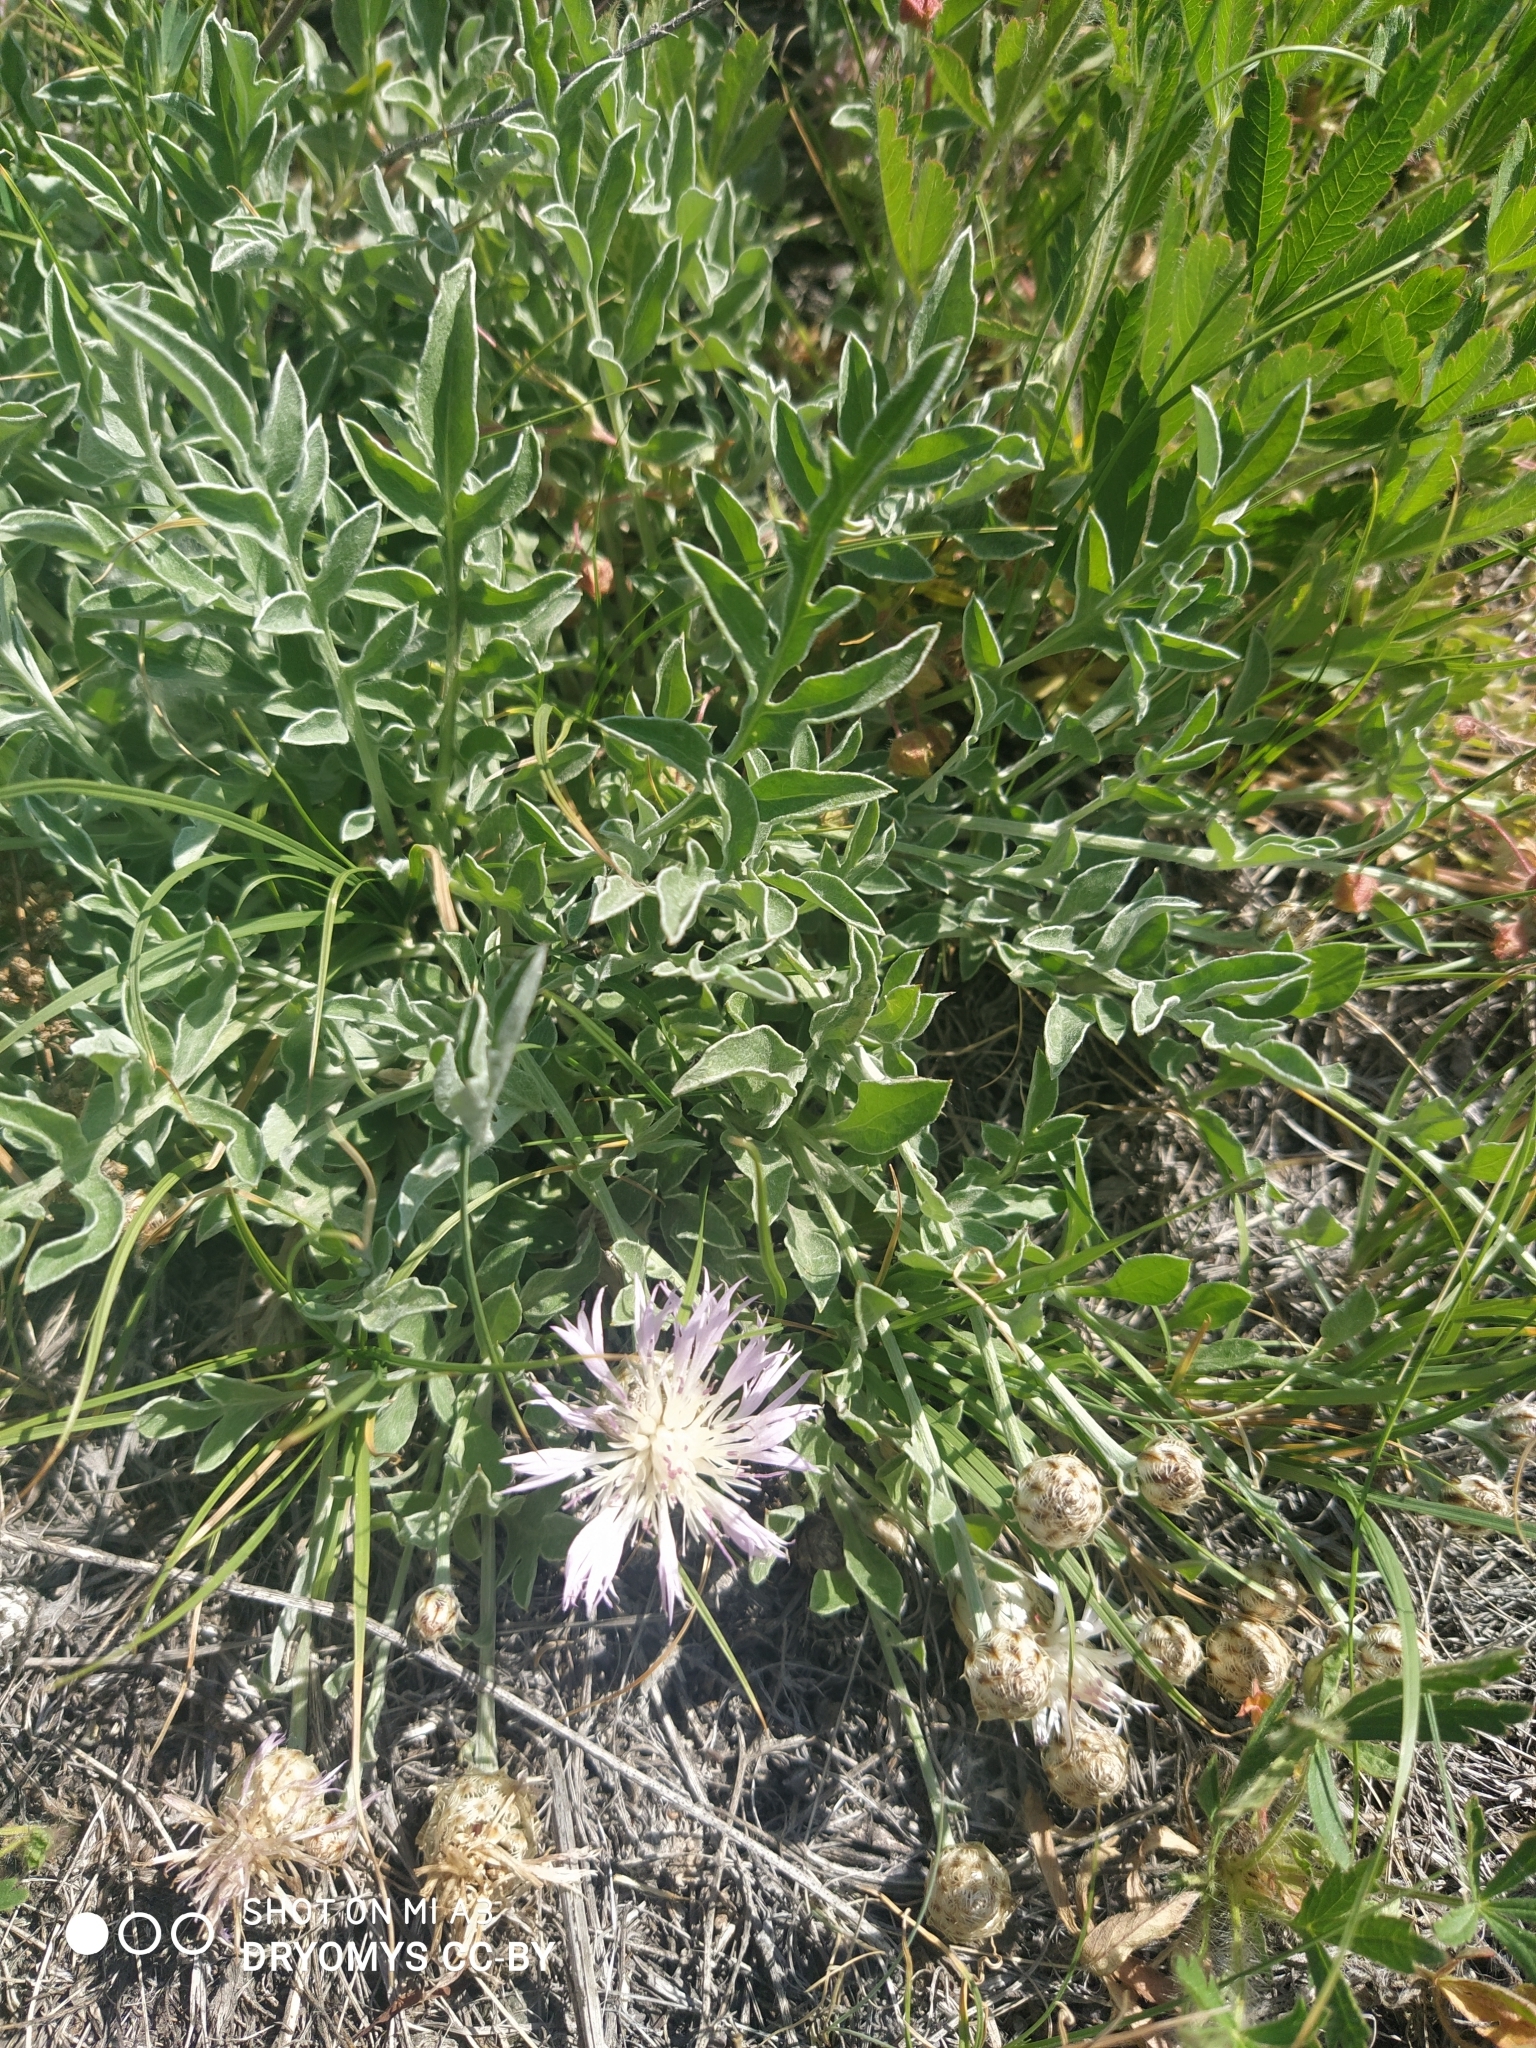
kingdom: Plantae
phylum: Tracheophyta
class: Magnoliopsida
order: Asterales
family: Asteraceae
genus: Psephellus
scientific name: Psephellus sibiricus
